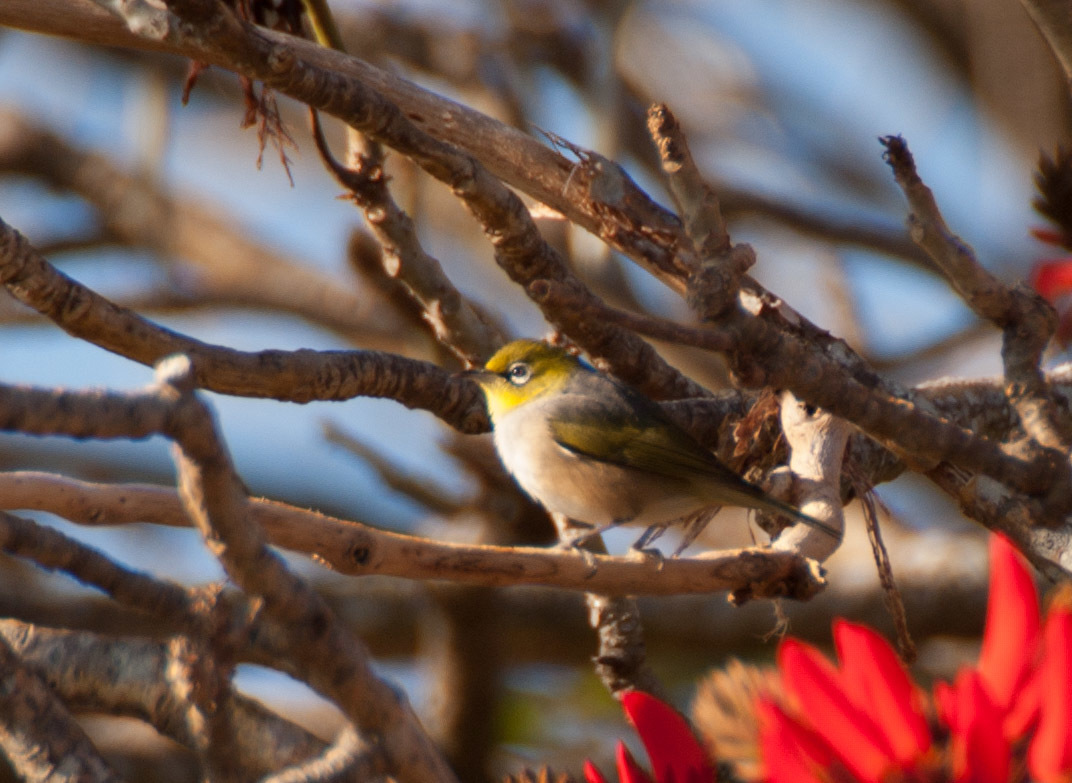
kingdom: Animalia
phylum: Chordata
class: Aves
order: Passeriformes
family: Zosteropidae
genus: Zosterops
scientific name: Zosterops lateralis
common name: Silvereye
